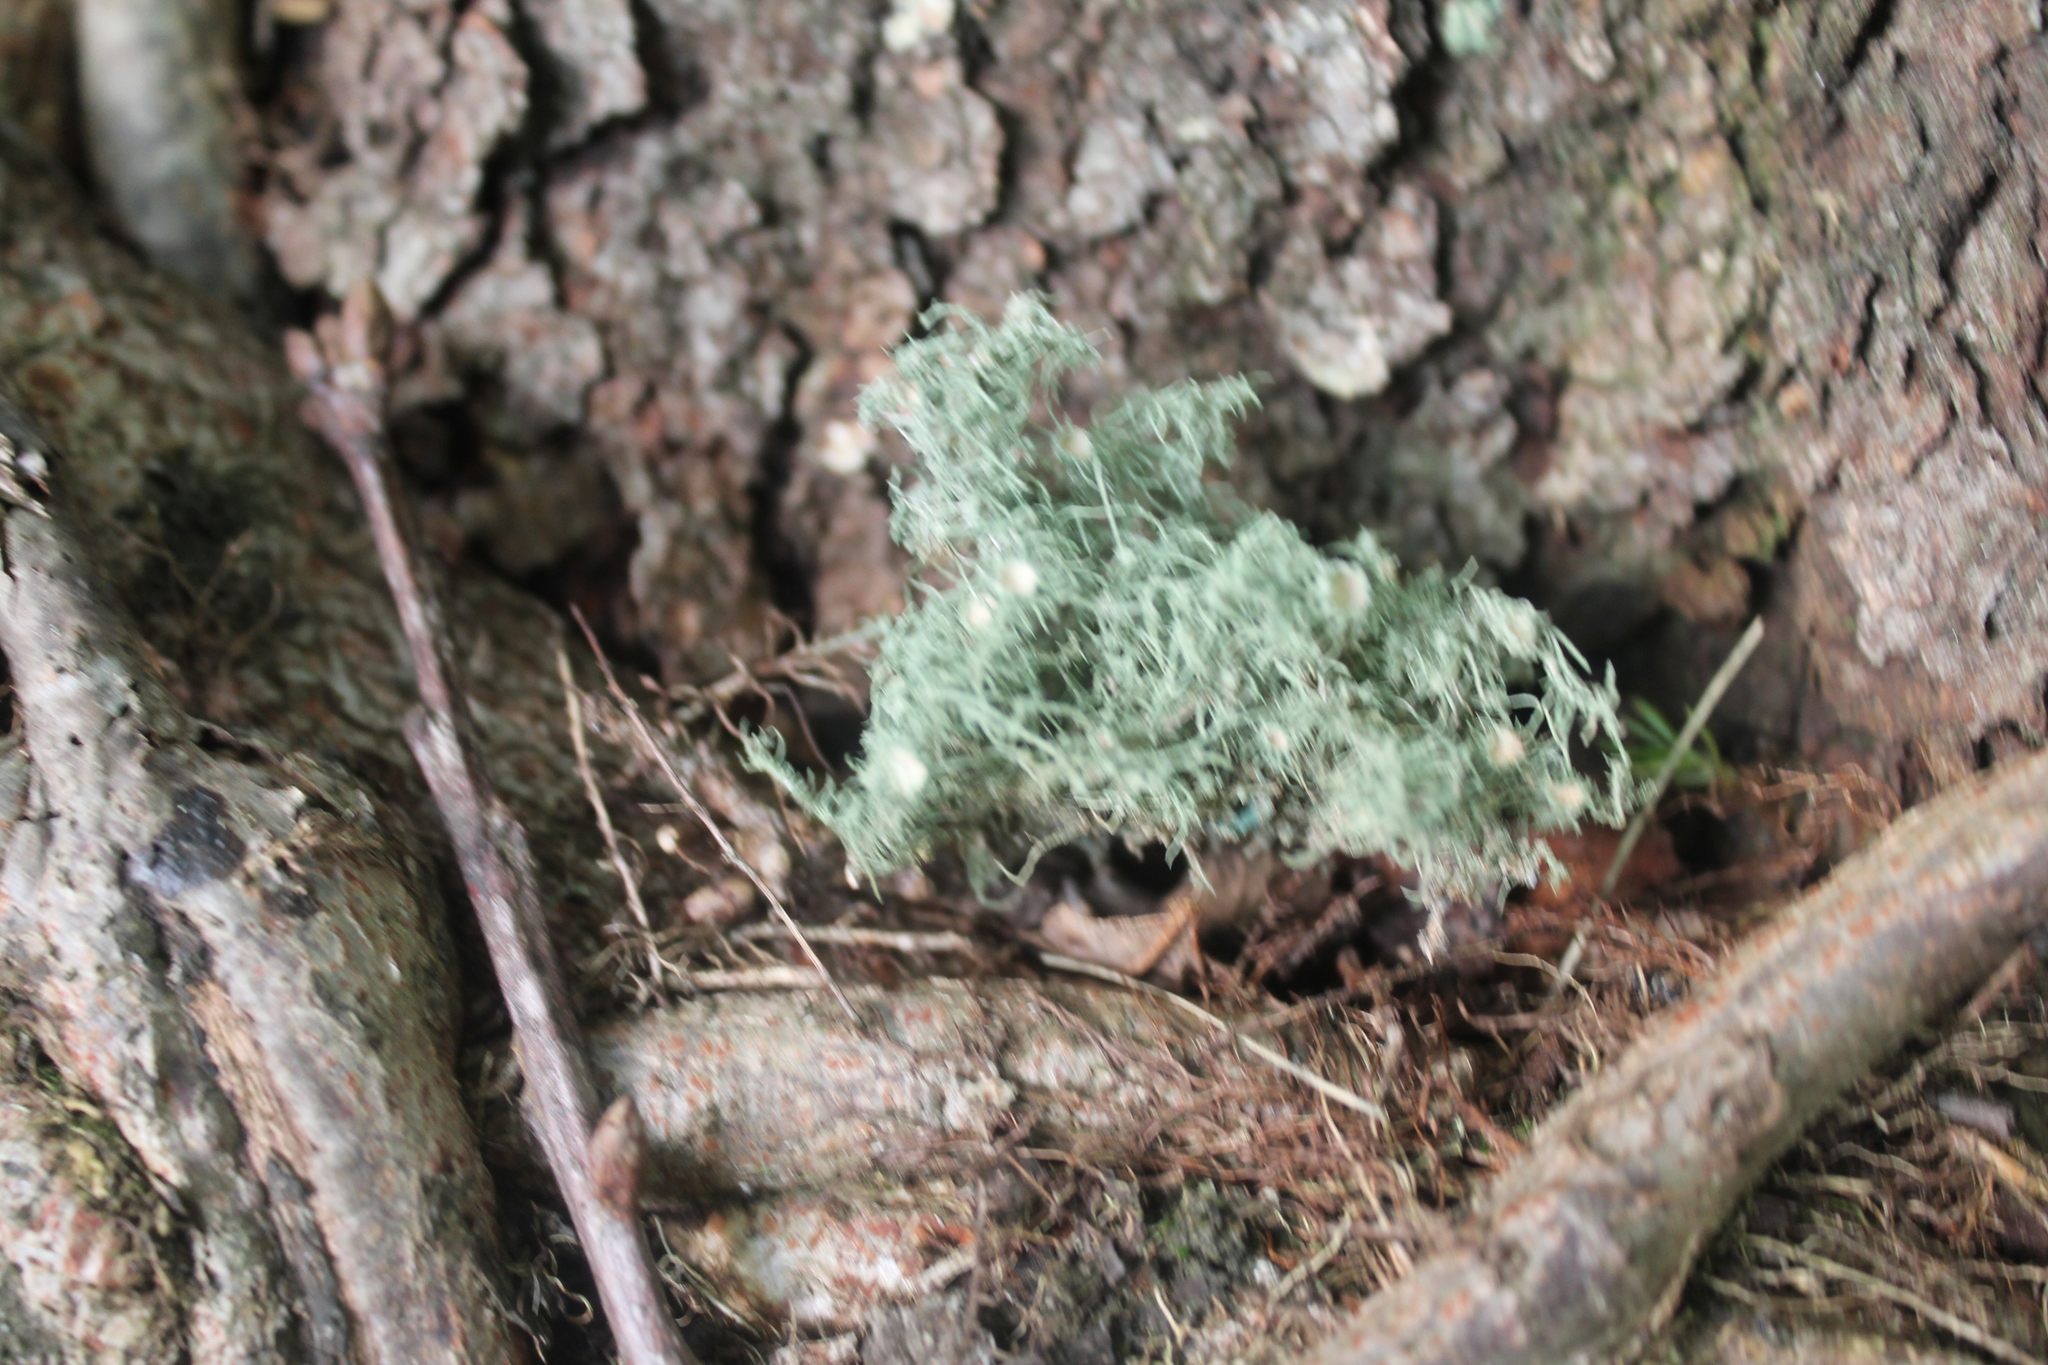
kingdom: Fungi
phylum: Ascomycota
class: Lecanoromycetes
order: Lecanorales
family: Parmeliaceae
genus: Usnea
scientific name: Usnea strigosa
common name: Bushy beard lichen
